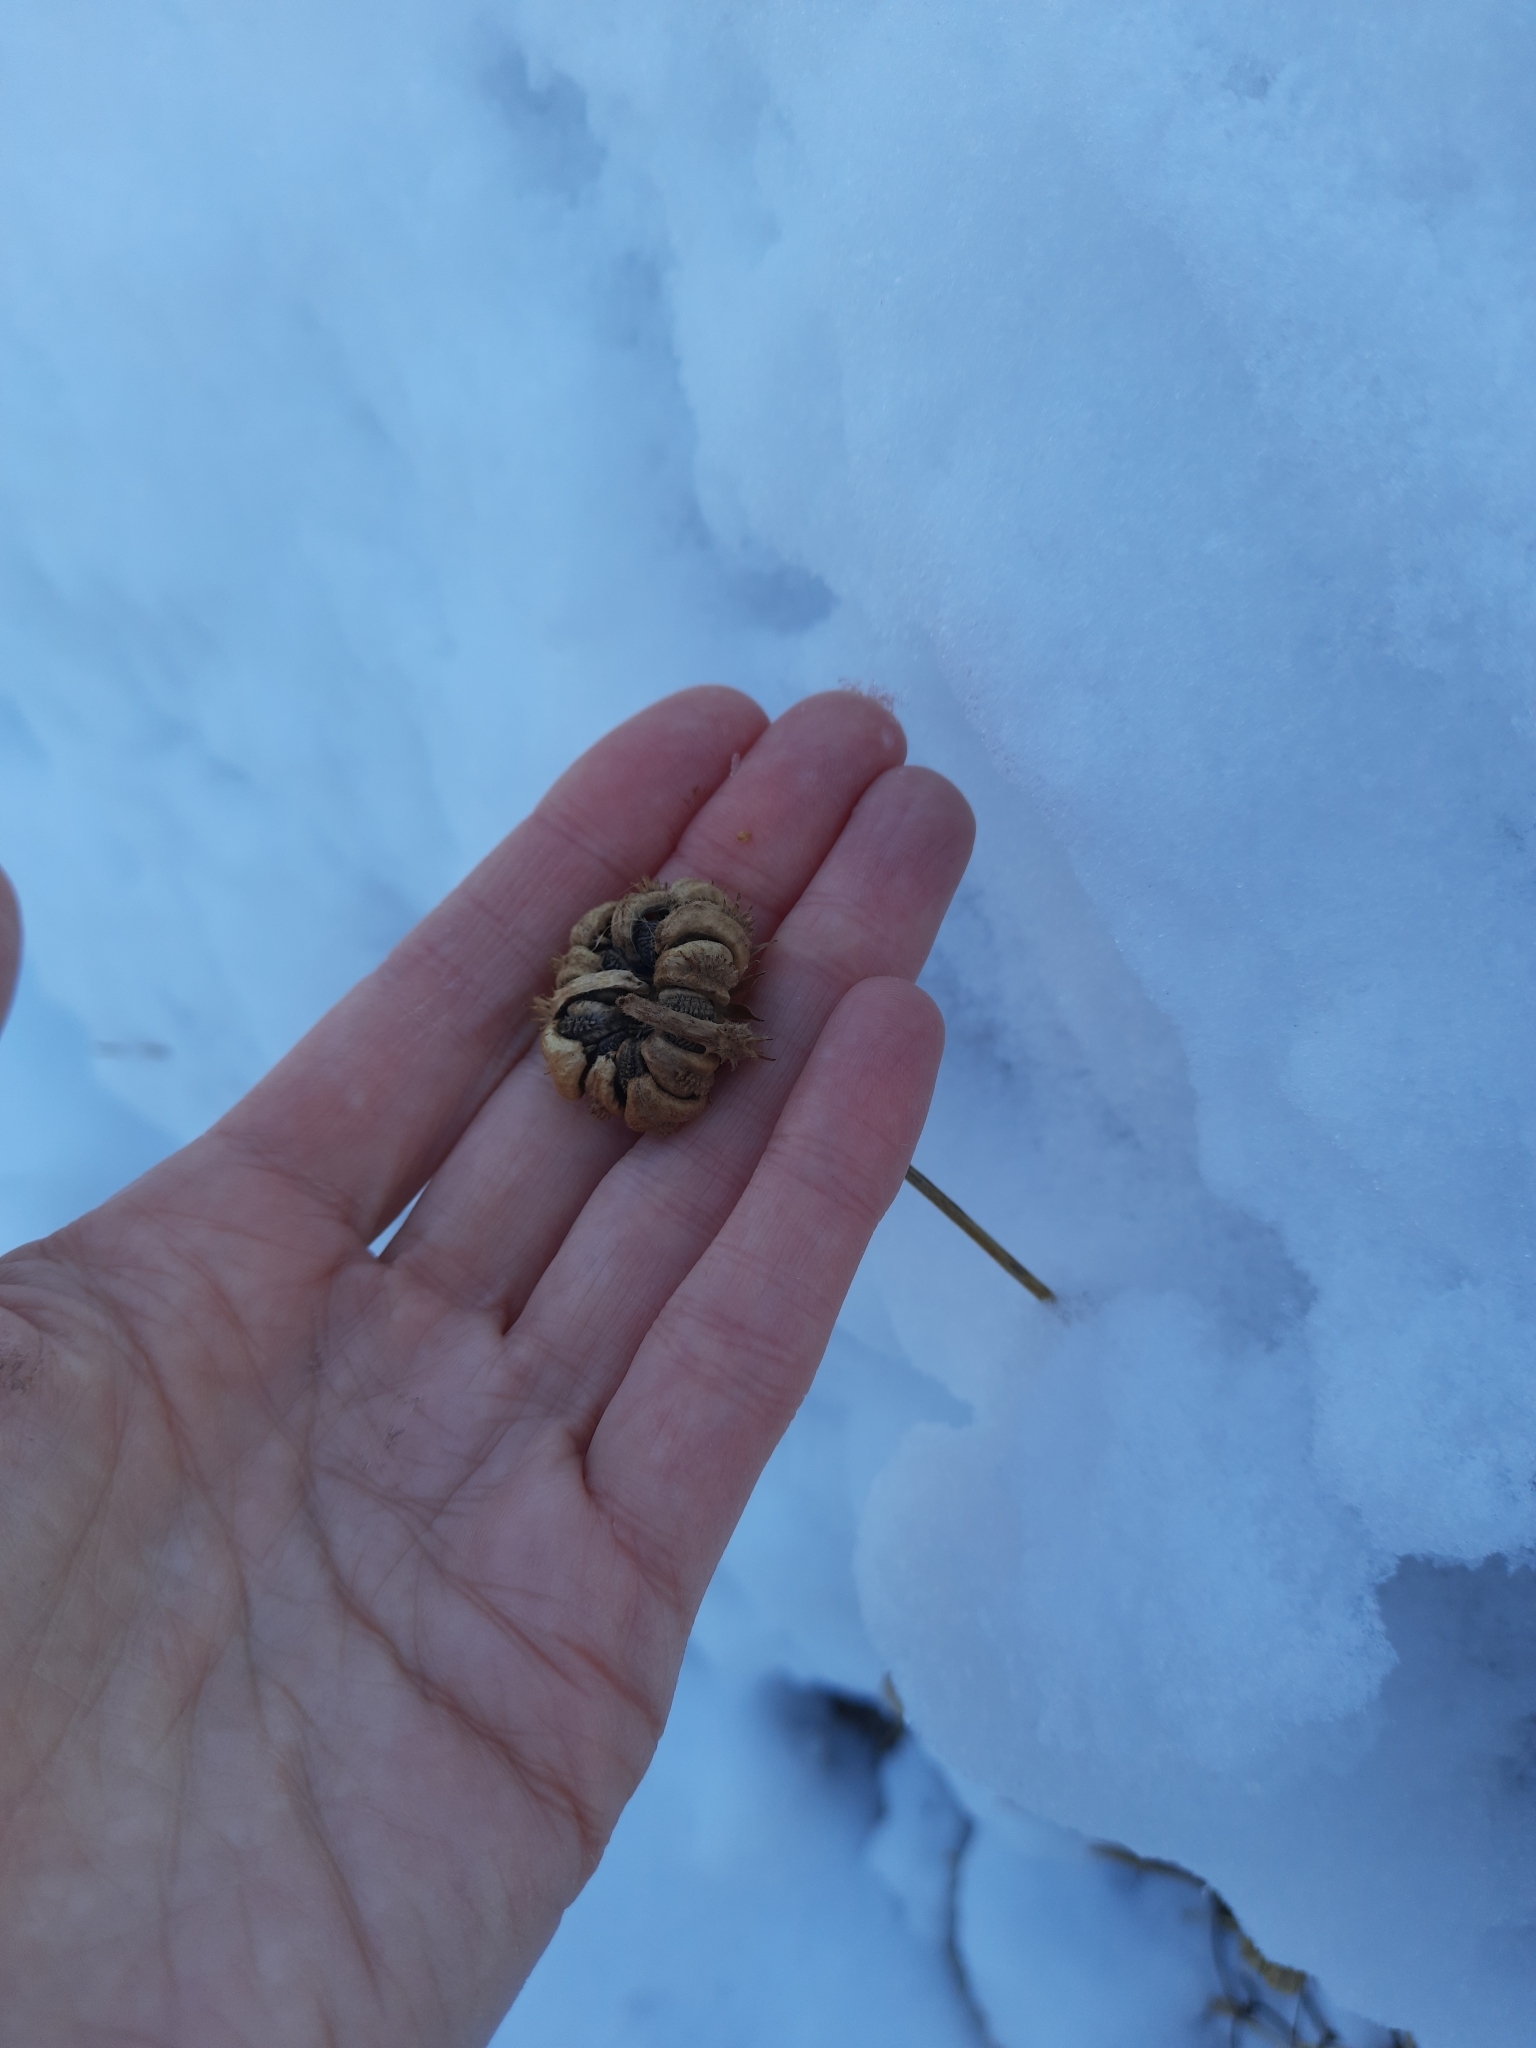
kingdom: Plantae
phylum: Tracheophyta
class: Magnoliopsida
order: Asterales
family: Asteraceae
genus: Calendula
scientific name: Calendula officinalis
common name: Pot marigold
